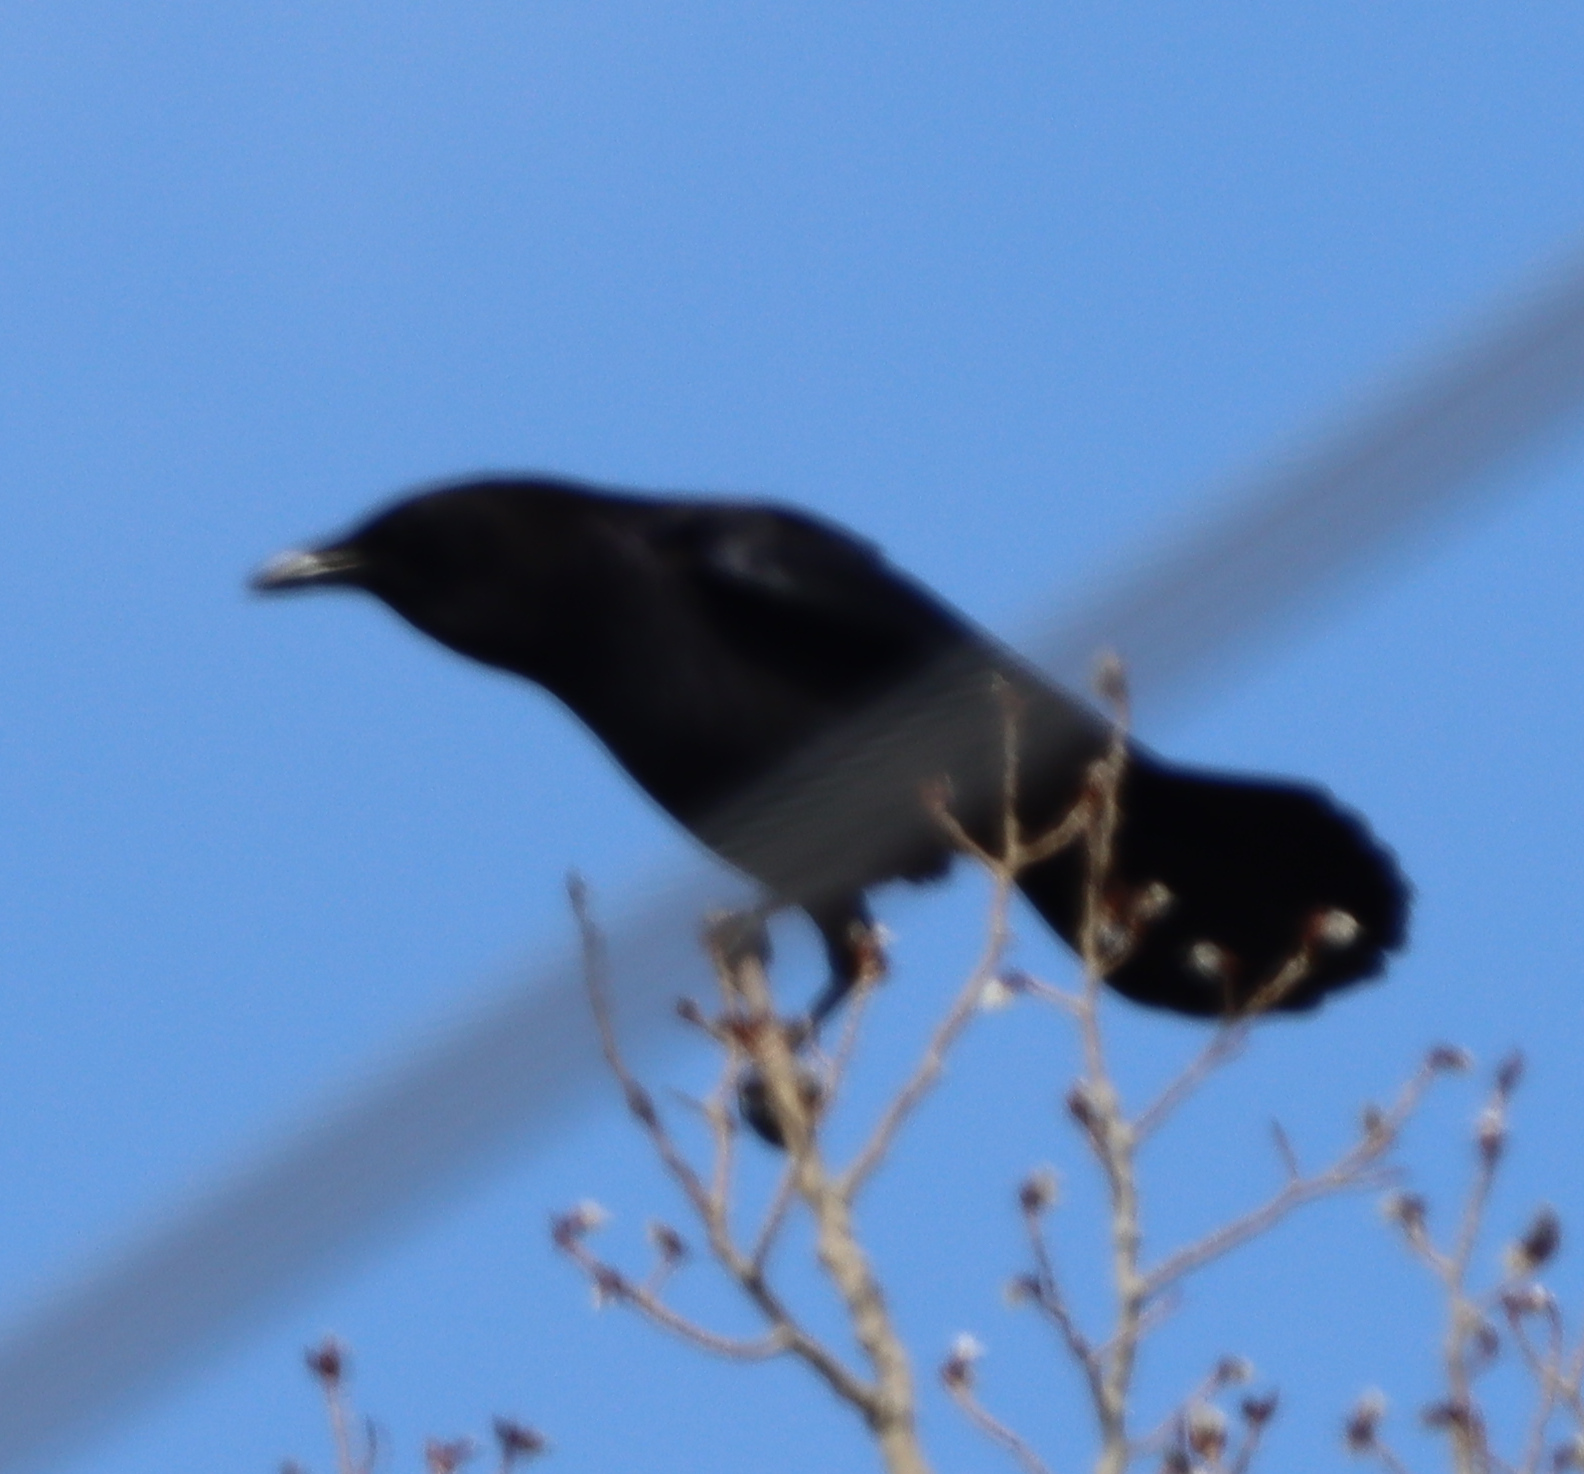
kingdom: Animalia
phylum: Chordata
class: Aves
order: Passeriformes
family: Corvidae
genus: Corvus
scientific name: Corvus brachyrhynchos
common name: American crow
